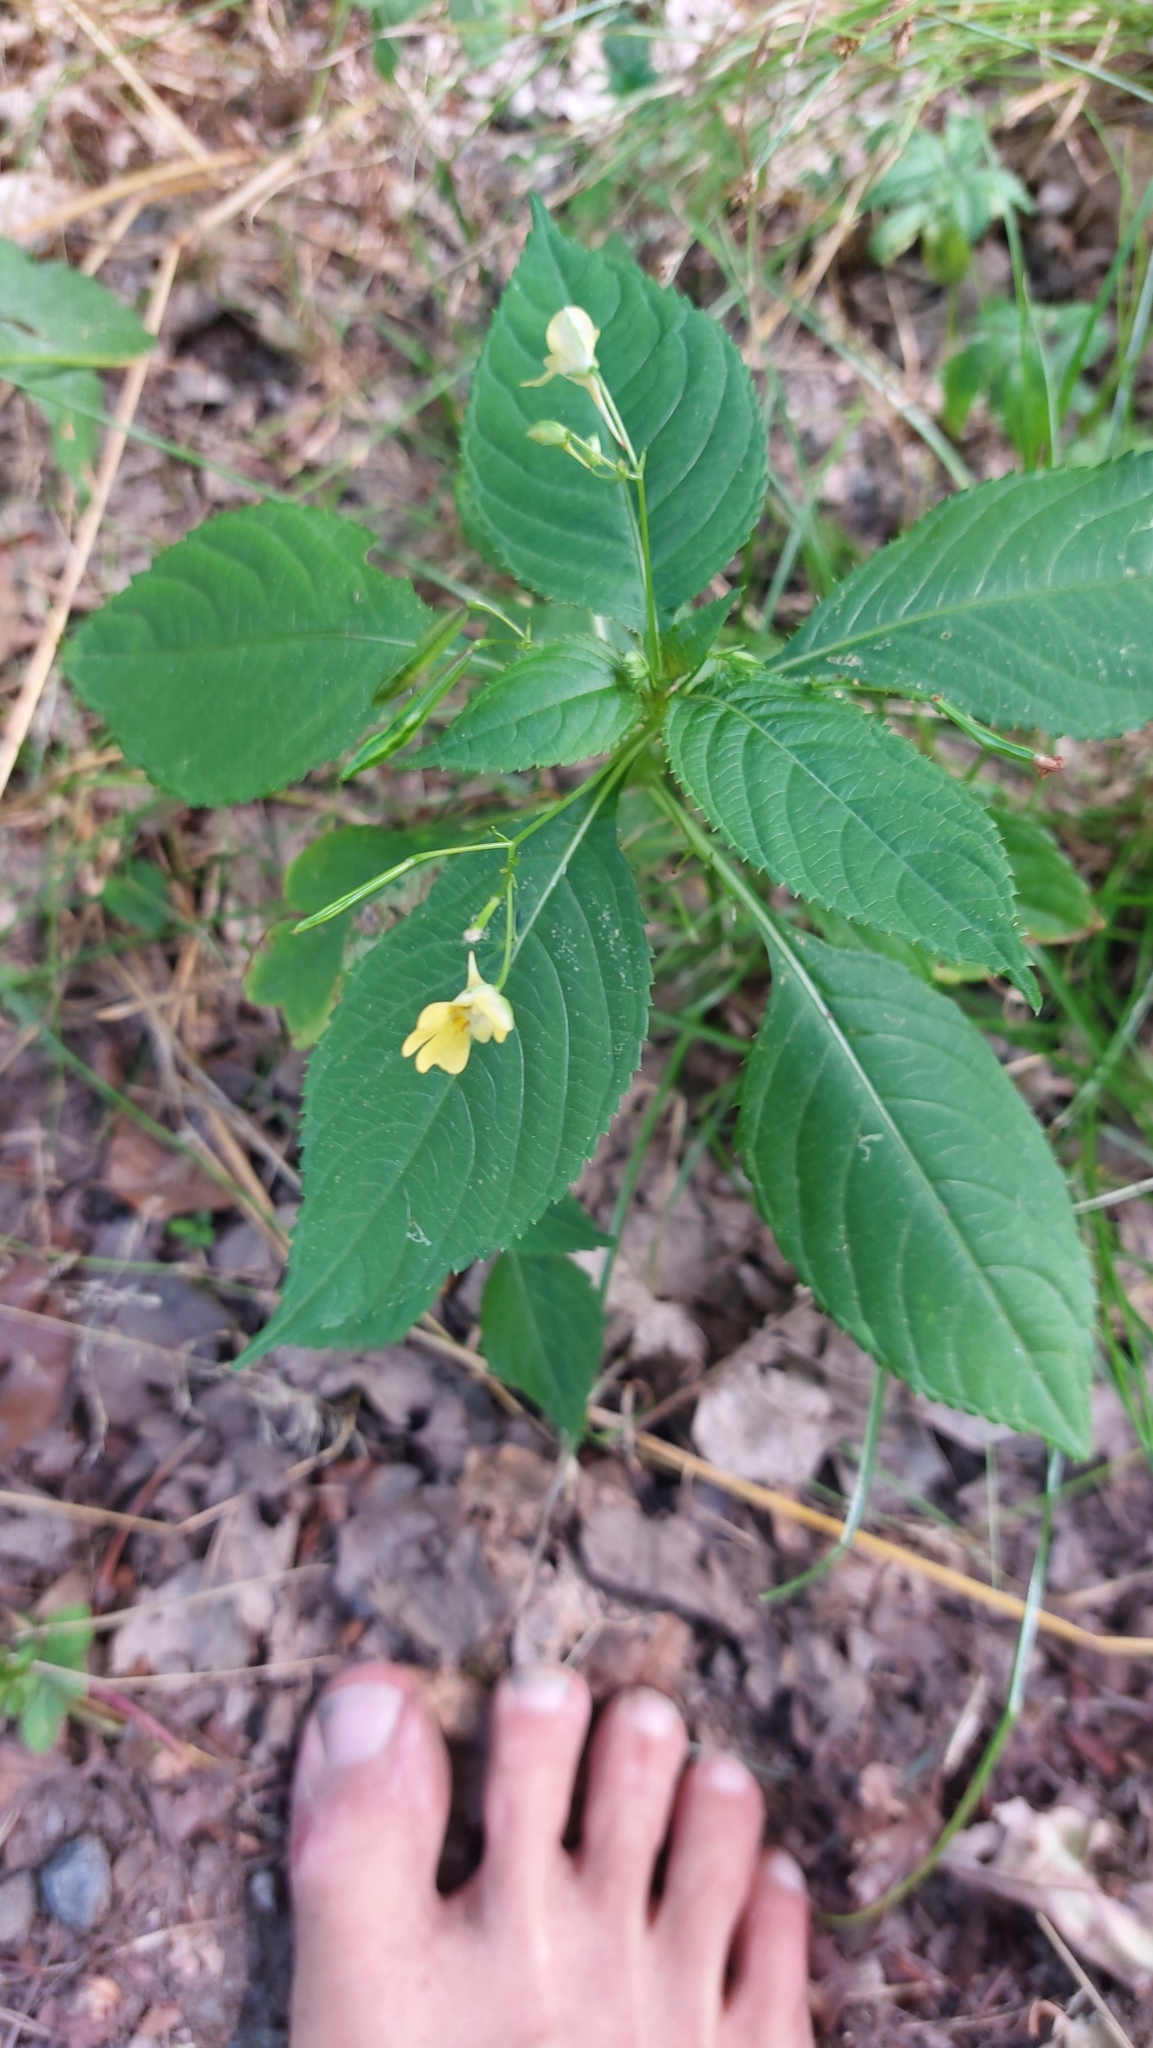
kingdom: Plantae
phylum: Tracheophyta
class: Magnoliopsida
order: Ericales
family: Balsaminaceae
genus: Impatiens
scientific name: Impatiens parviflora
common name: Small balsam
